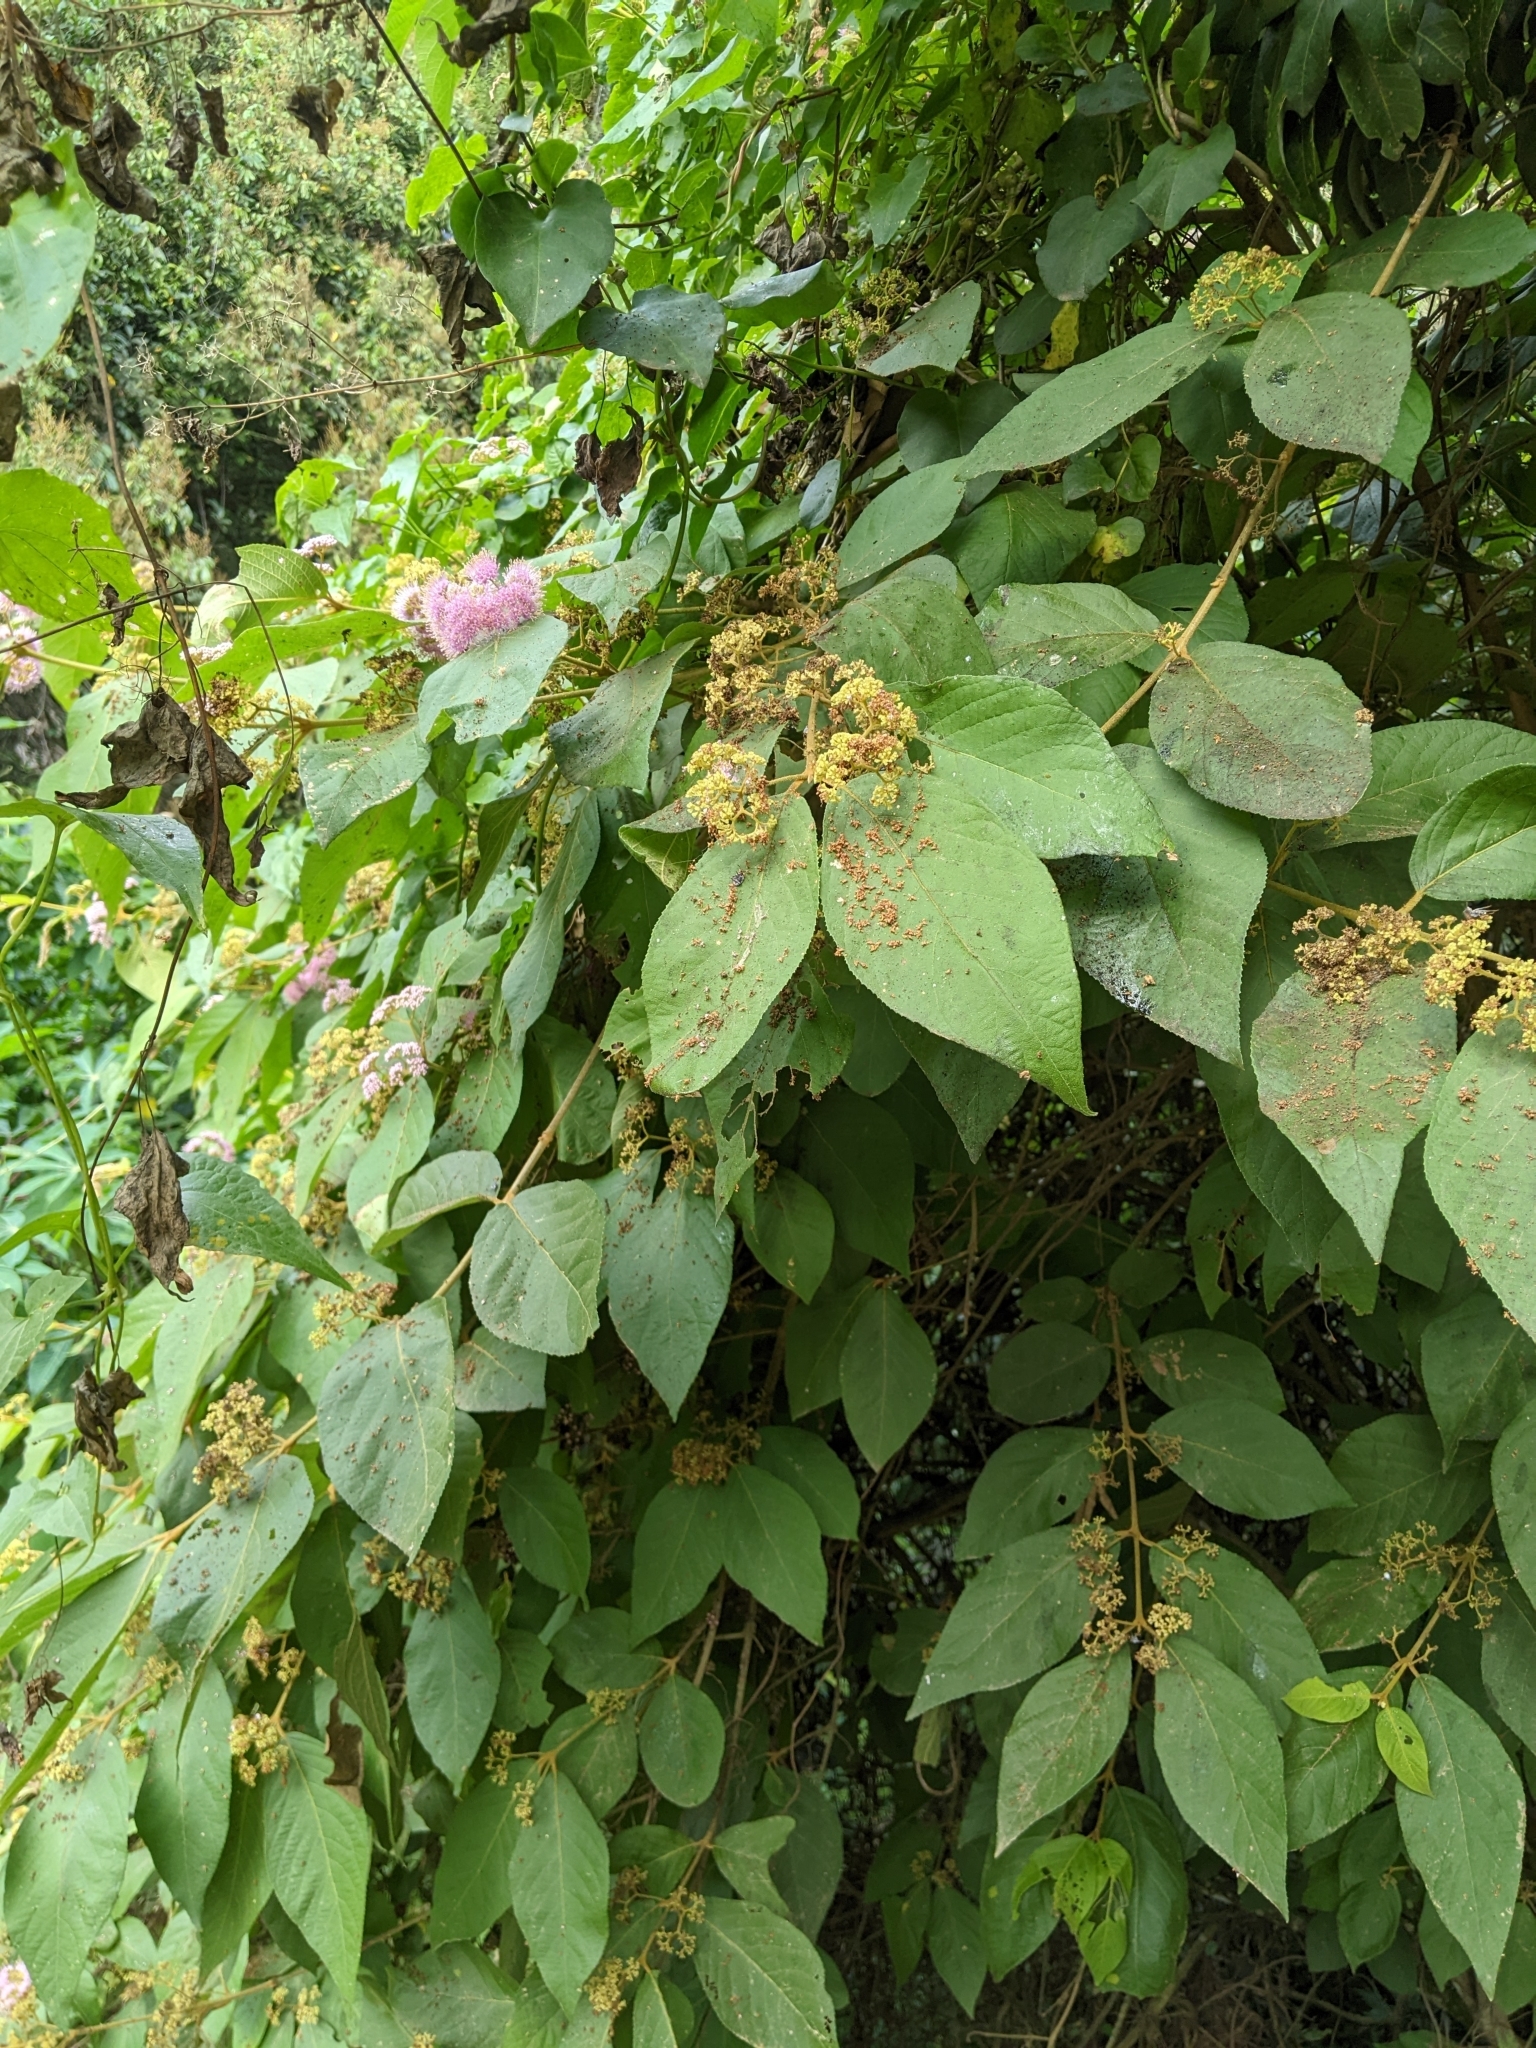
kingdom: Plantae
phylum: Tracheophyta
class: Magnoliopsida
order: Lamiales
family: Lamiaceae
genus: Callicarpa
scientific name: Callicarpa pedunculata
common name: Velvetleaf
